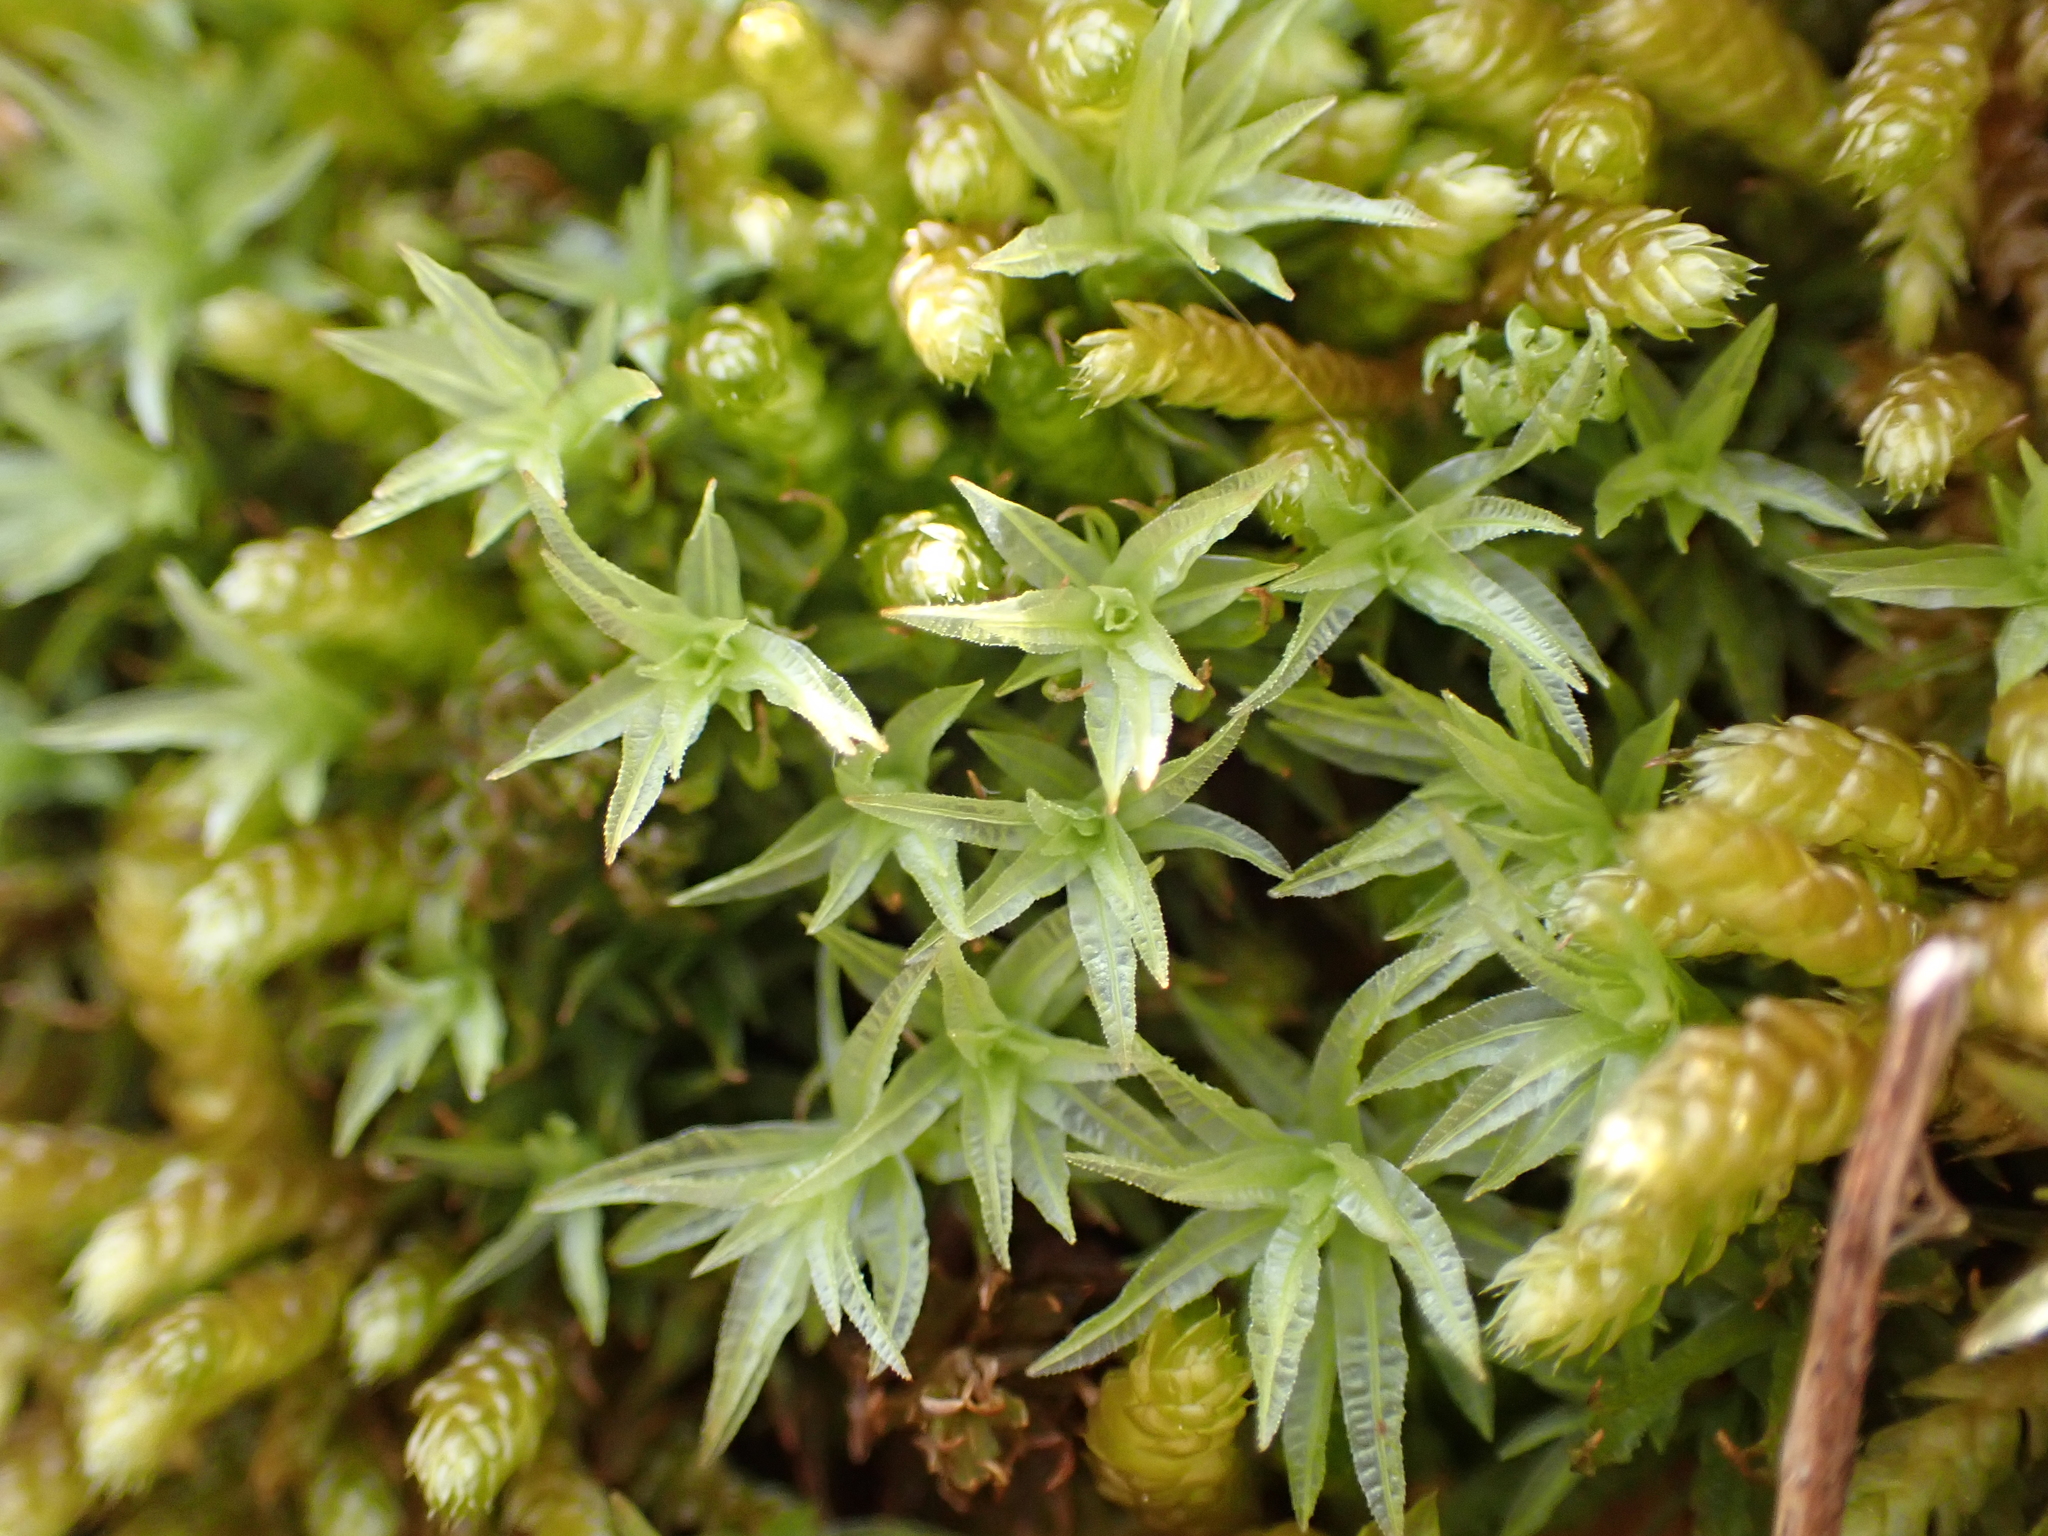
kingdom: Plantae
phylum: Bryophyta
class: Polytrichopsida
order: Polytrichales
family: Polytrichaceae
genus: Atrichum
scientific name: Atrichum undulatum
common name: Common smoothcap
